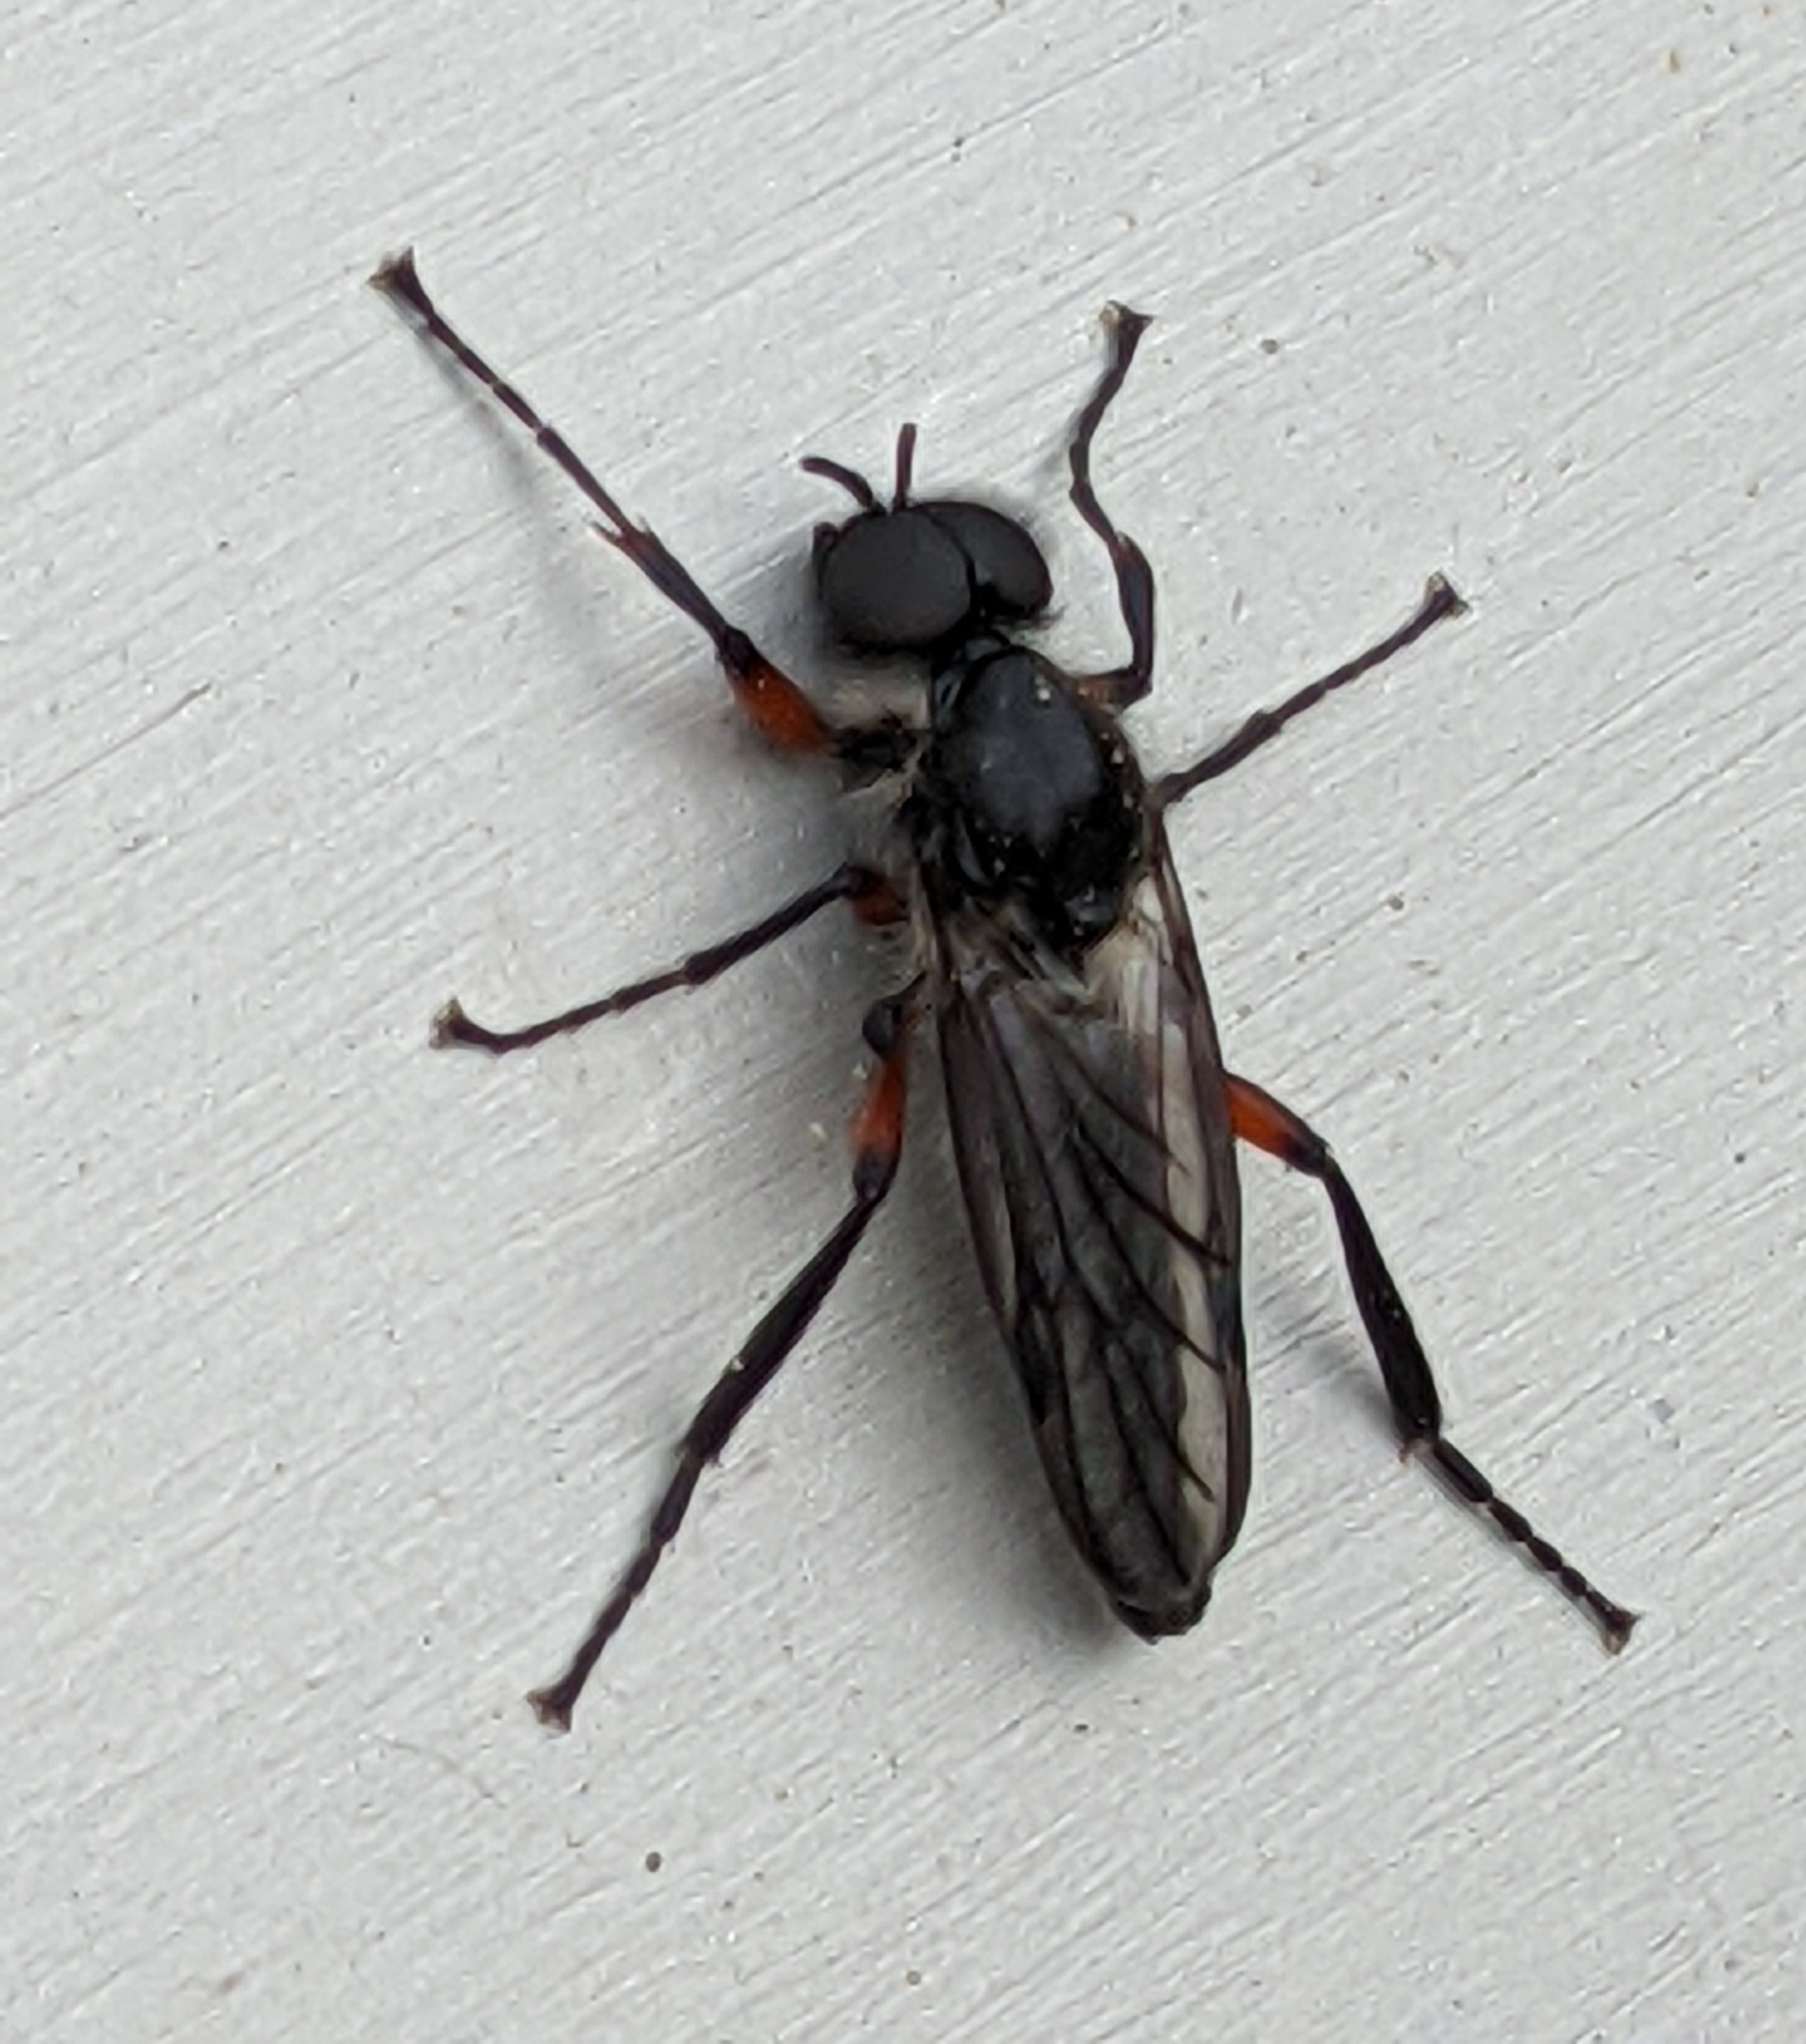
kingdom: Animalia
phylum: Arthropoda
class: Insecta
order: Diptera
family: Bibionidae
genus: Bibio
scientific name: Bibio femoratus
